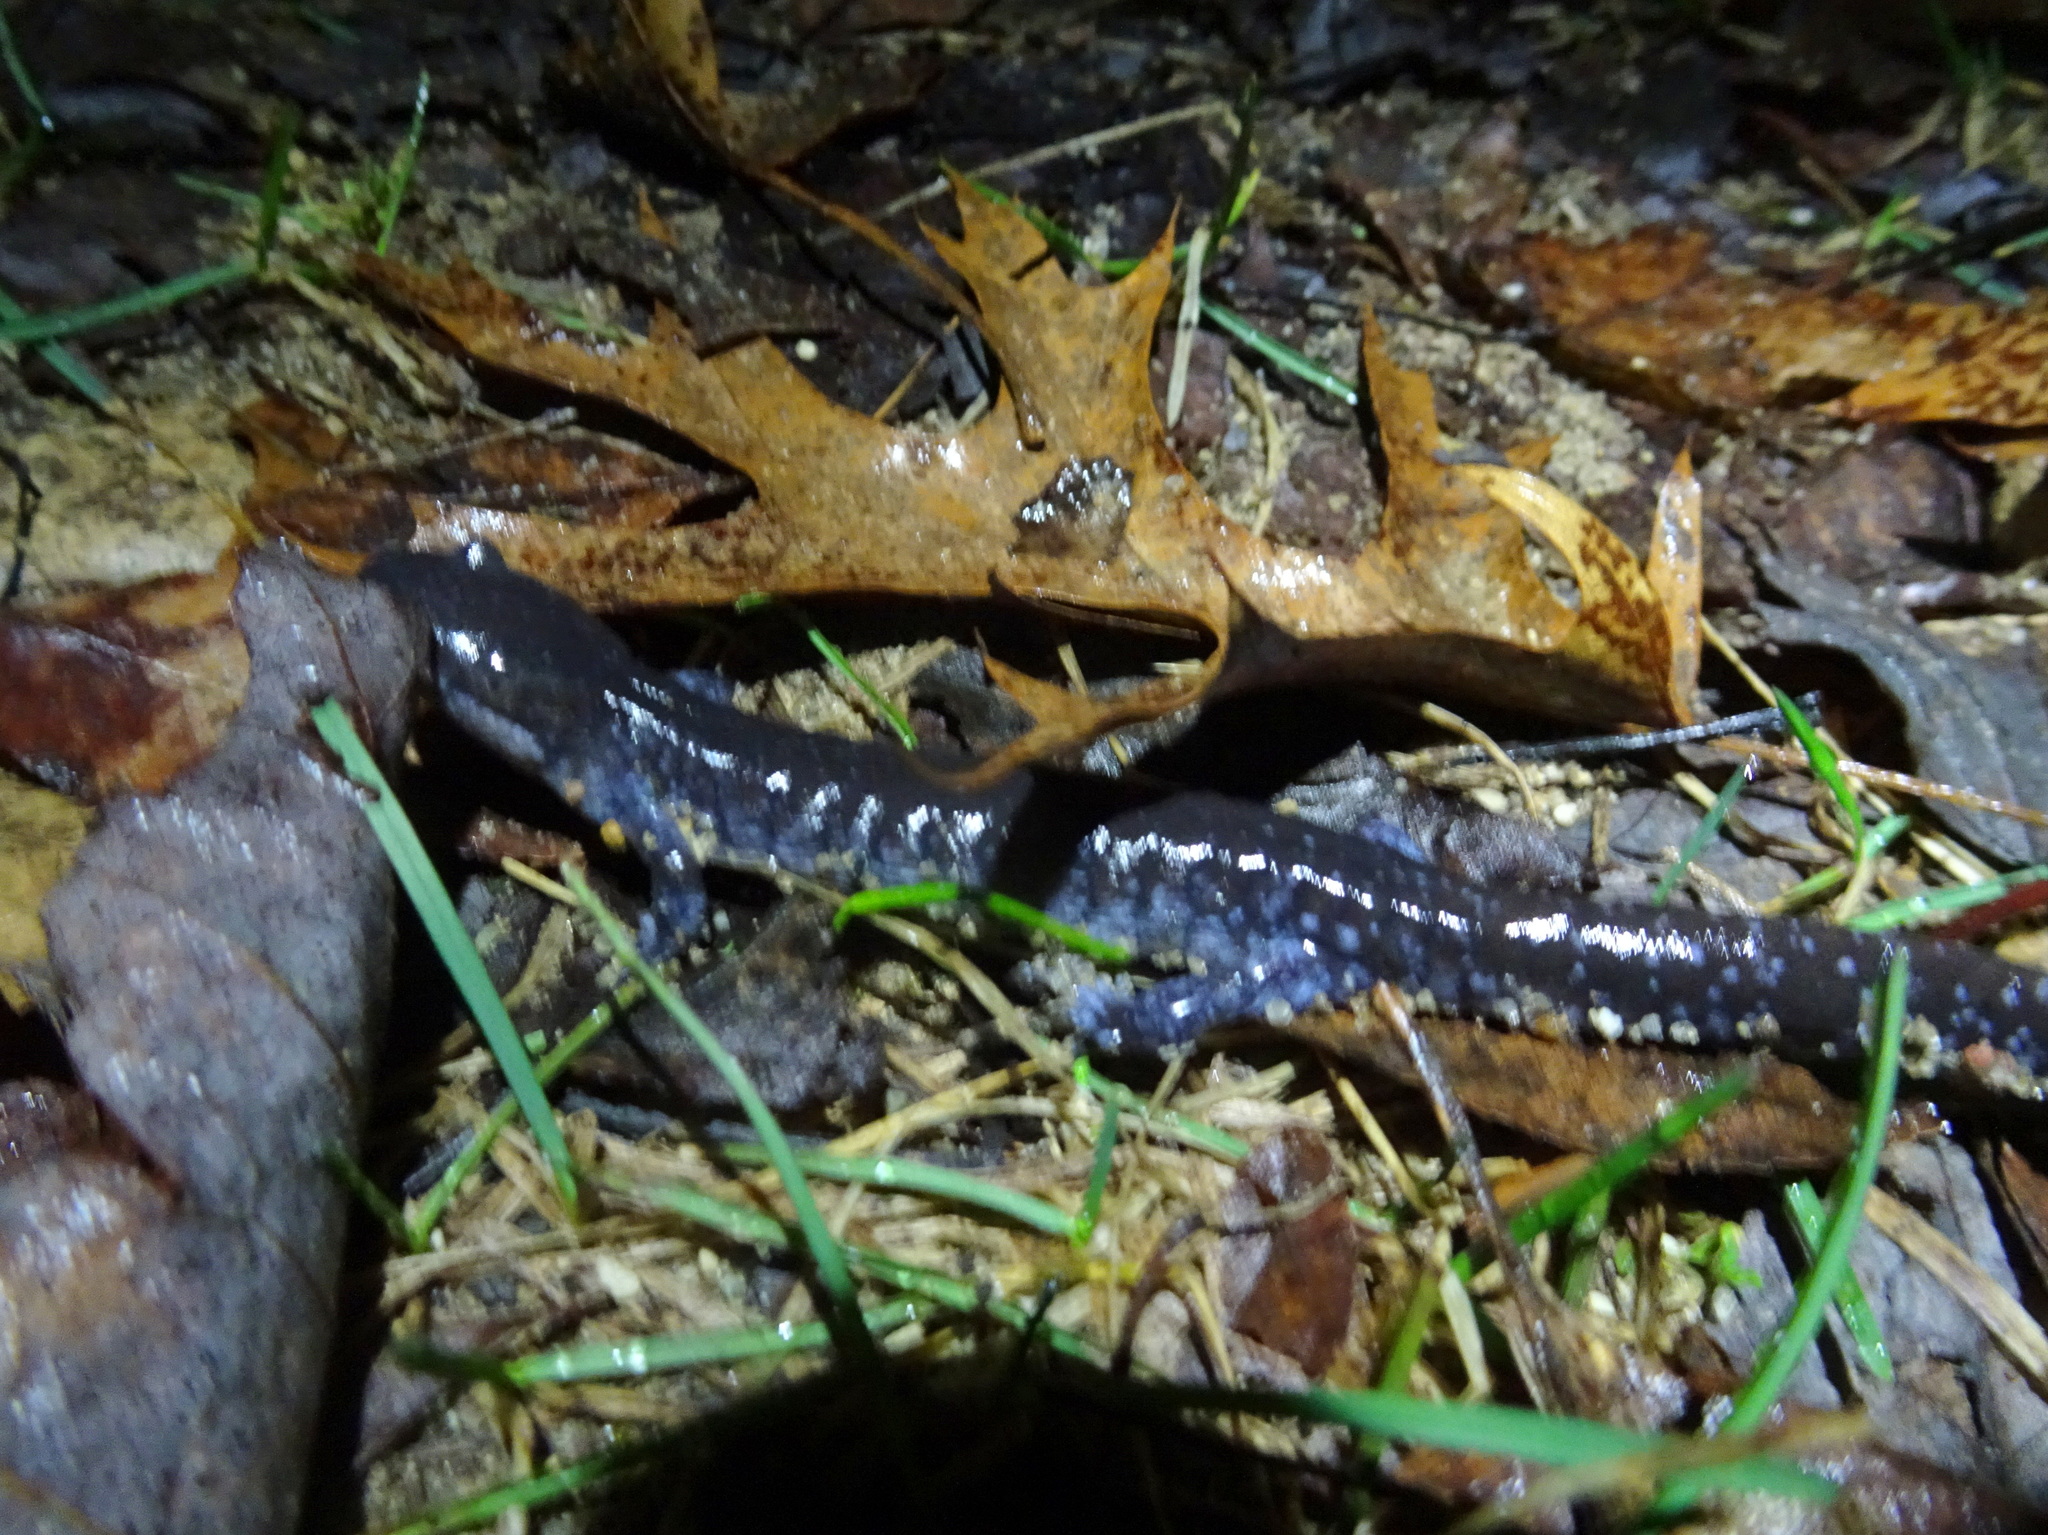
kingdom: Animalia
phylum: Chordata
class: Amphibia
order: Caudata
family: Ambystomatidae
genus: Ambystoma
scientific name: Ambystoma laterale
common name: Blue-spotted salamander
